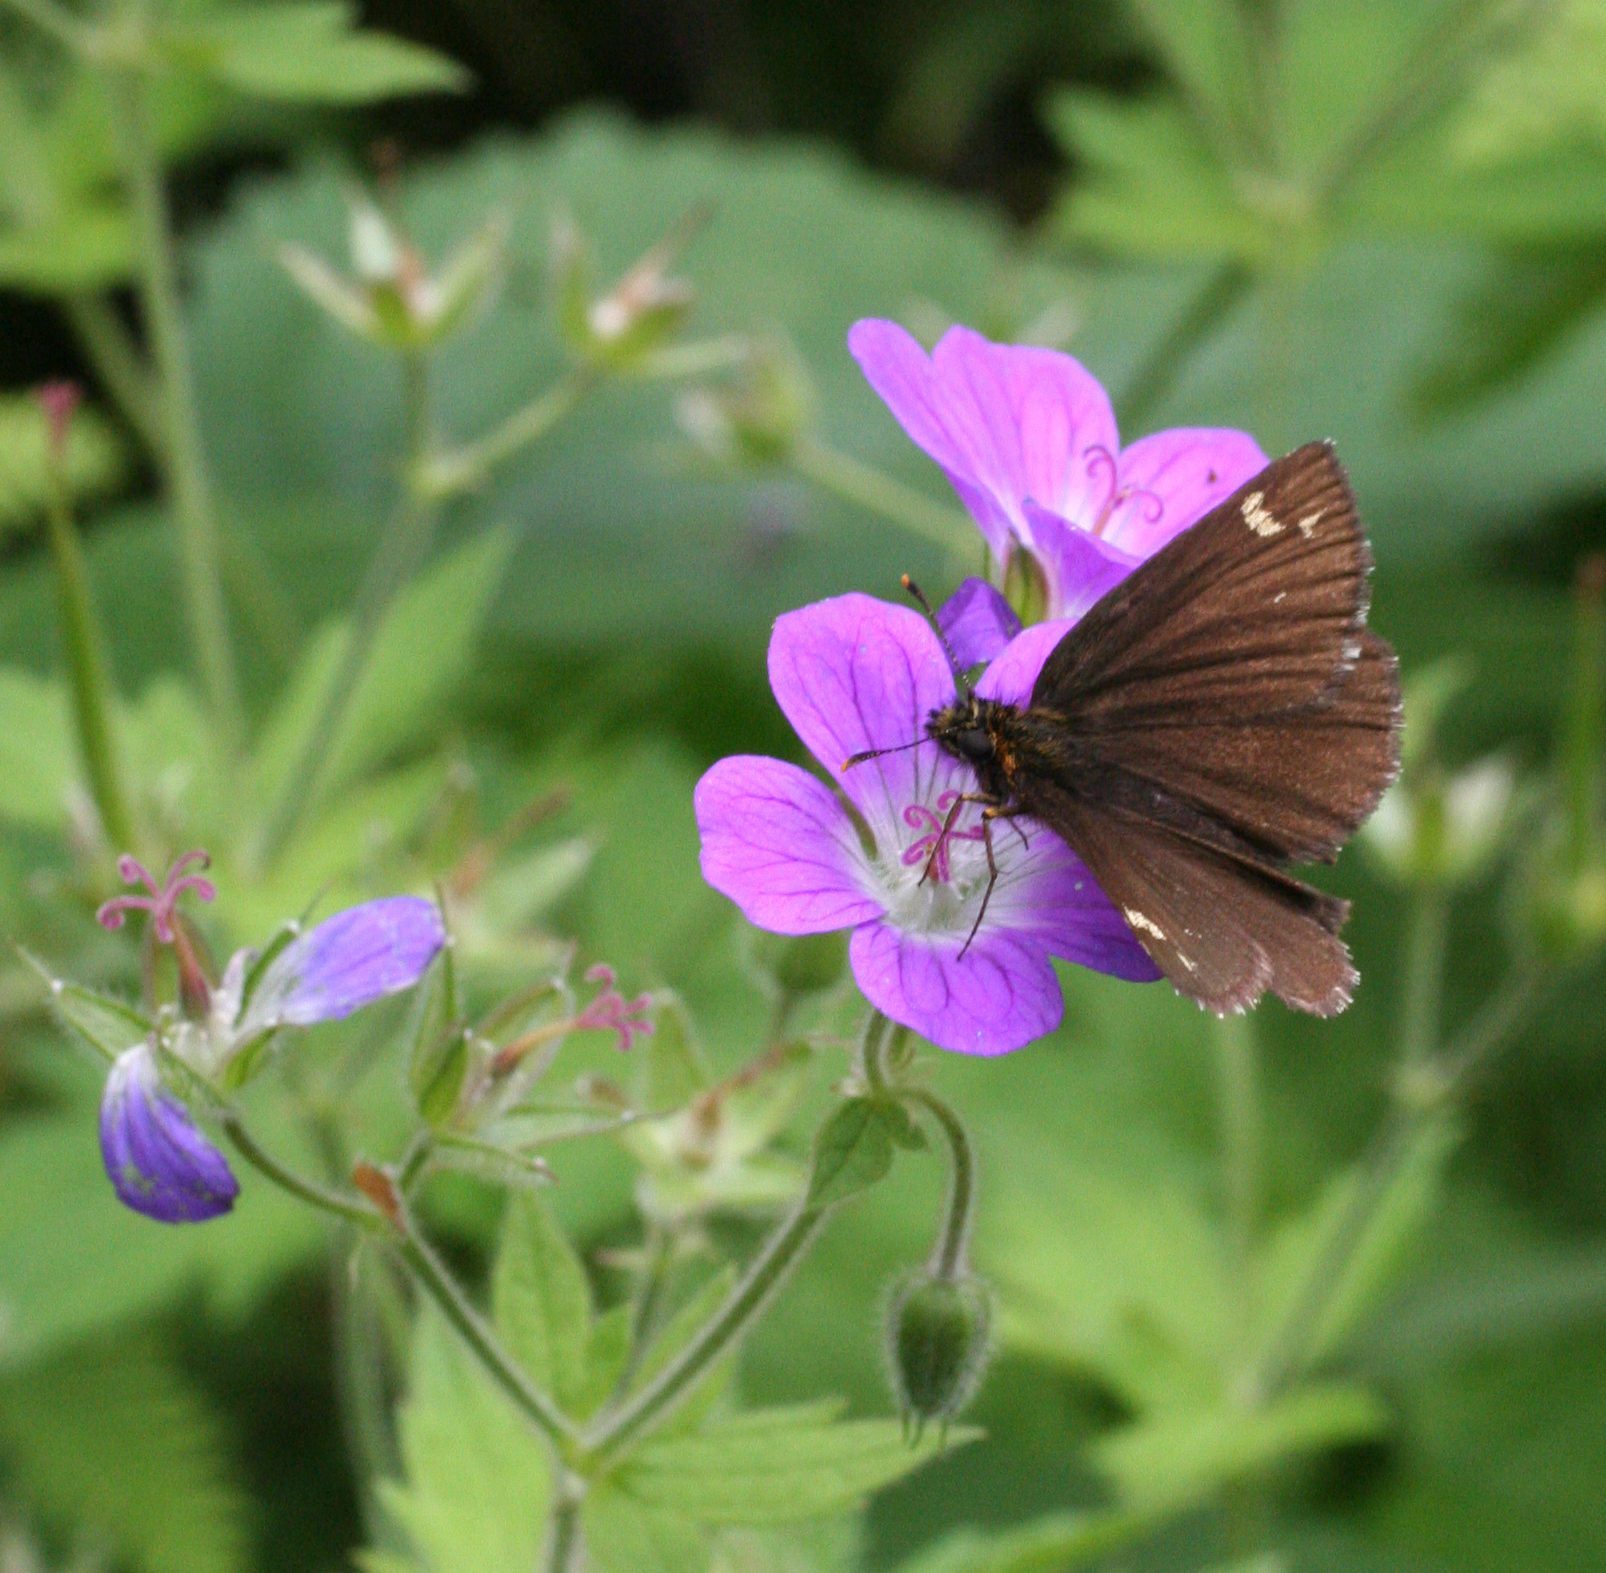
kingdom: Animalia
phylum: Arthropoda
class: Insecta
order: Lepidoptera
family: Hesperiidae
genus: Heteropterus
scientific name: Heteropterus morpheus
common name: Large chequered skipper
